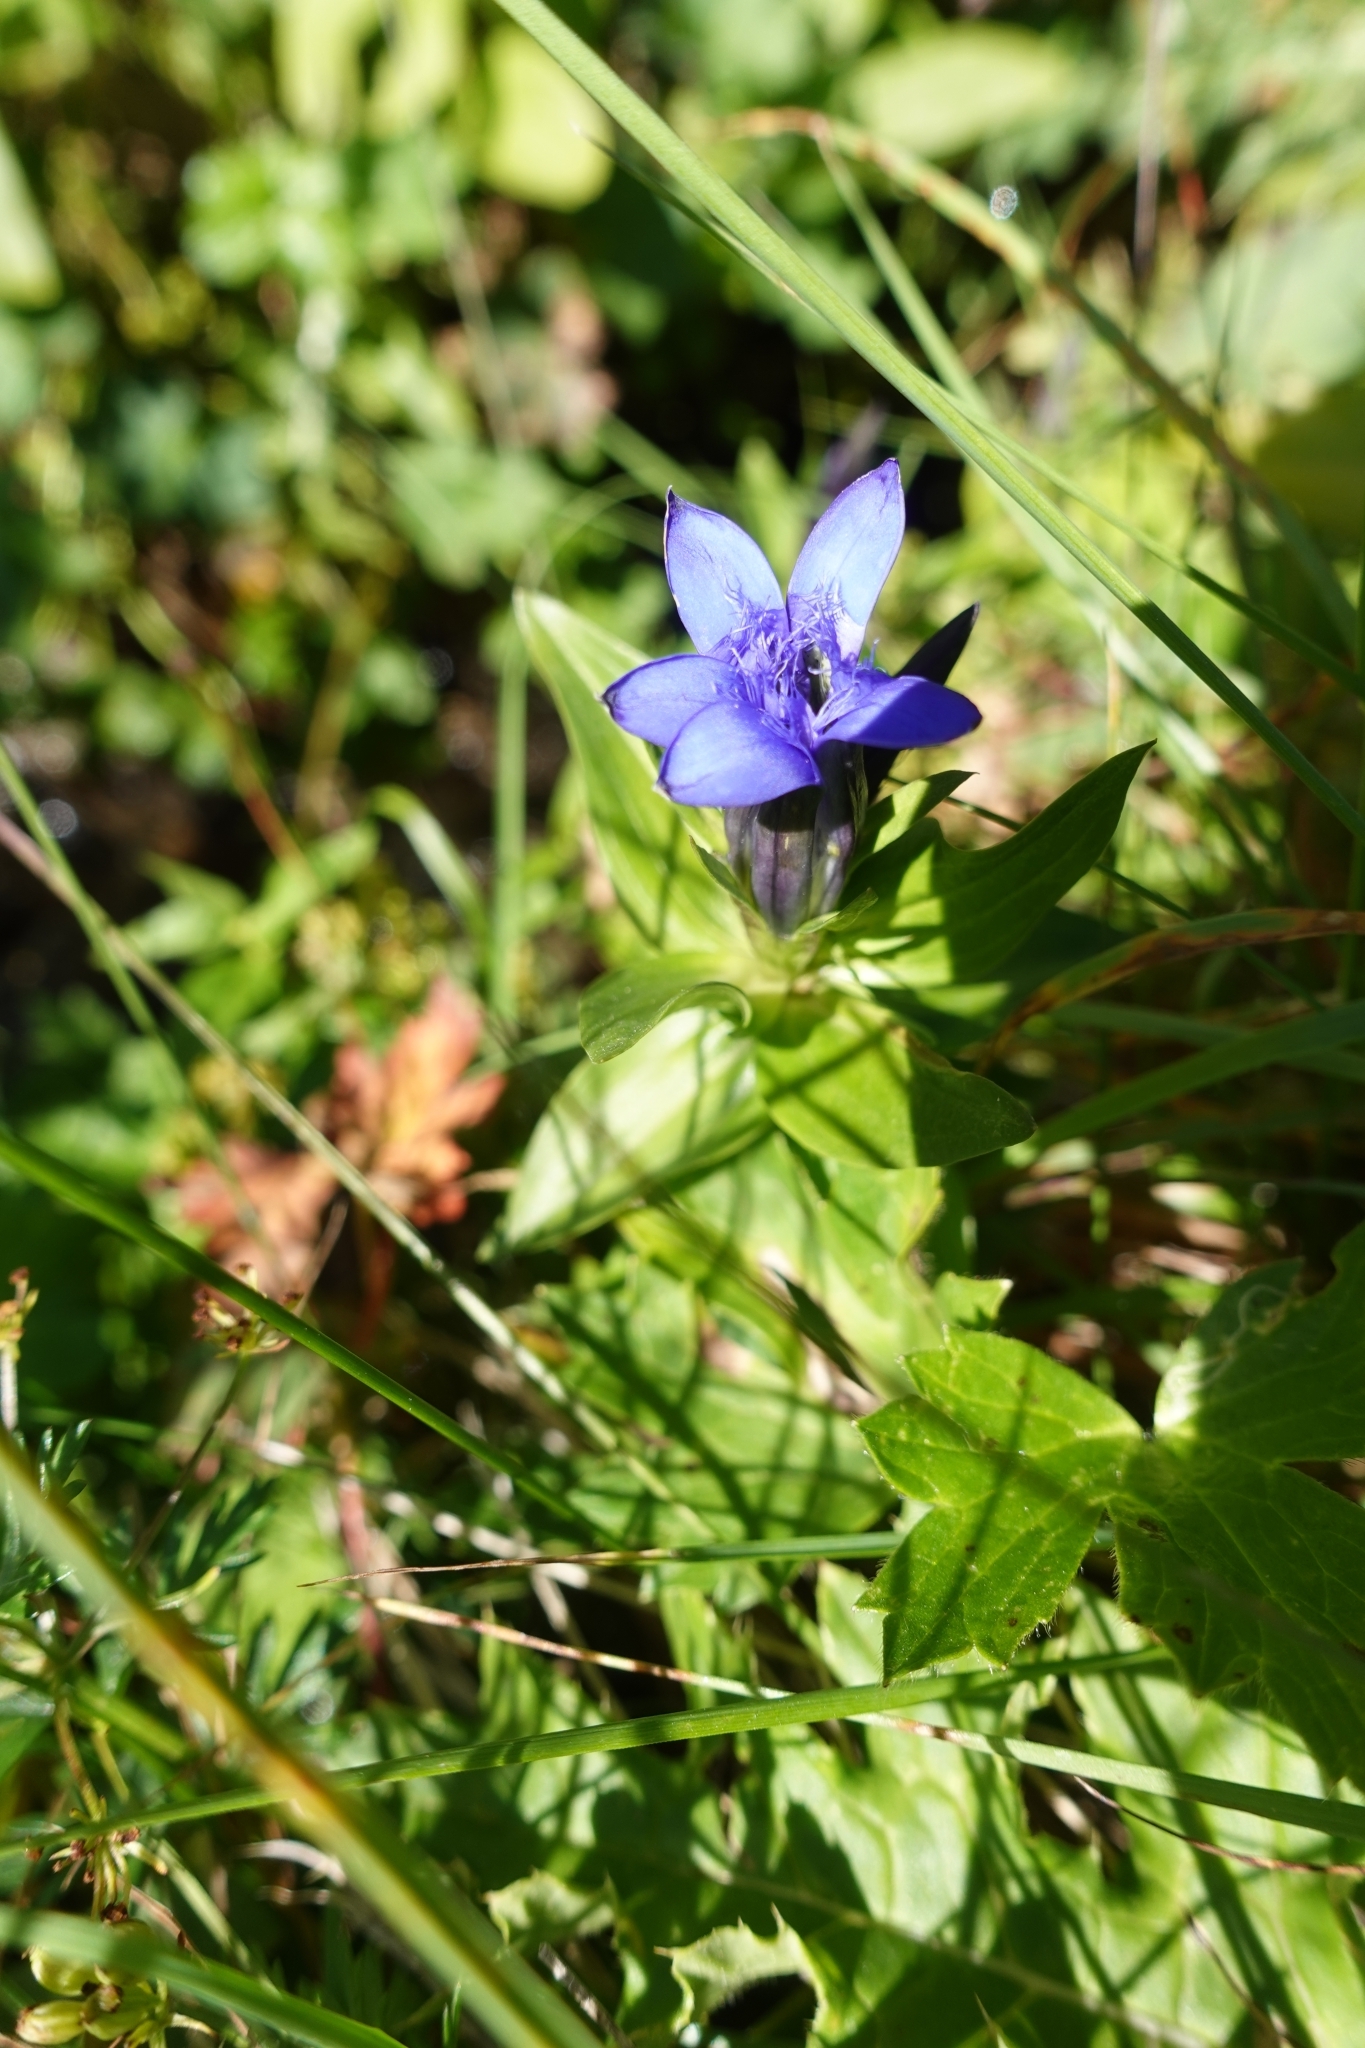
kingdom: Plantae
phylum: Tracheophyta
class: Magnoliopsida
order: Gentianales
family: Gentianaceae
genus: Gentiana
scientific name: Gentiana septemfida
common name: Crested gentian
